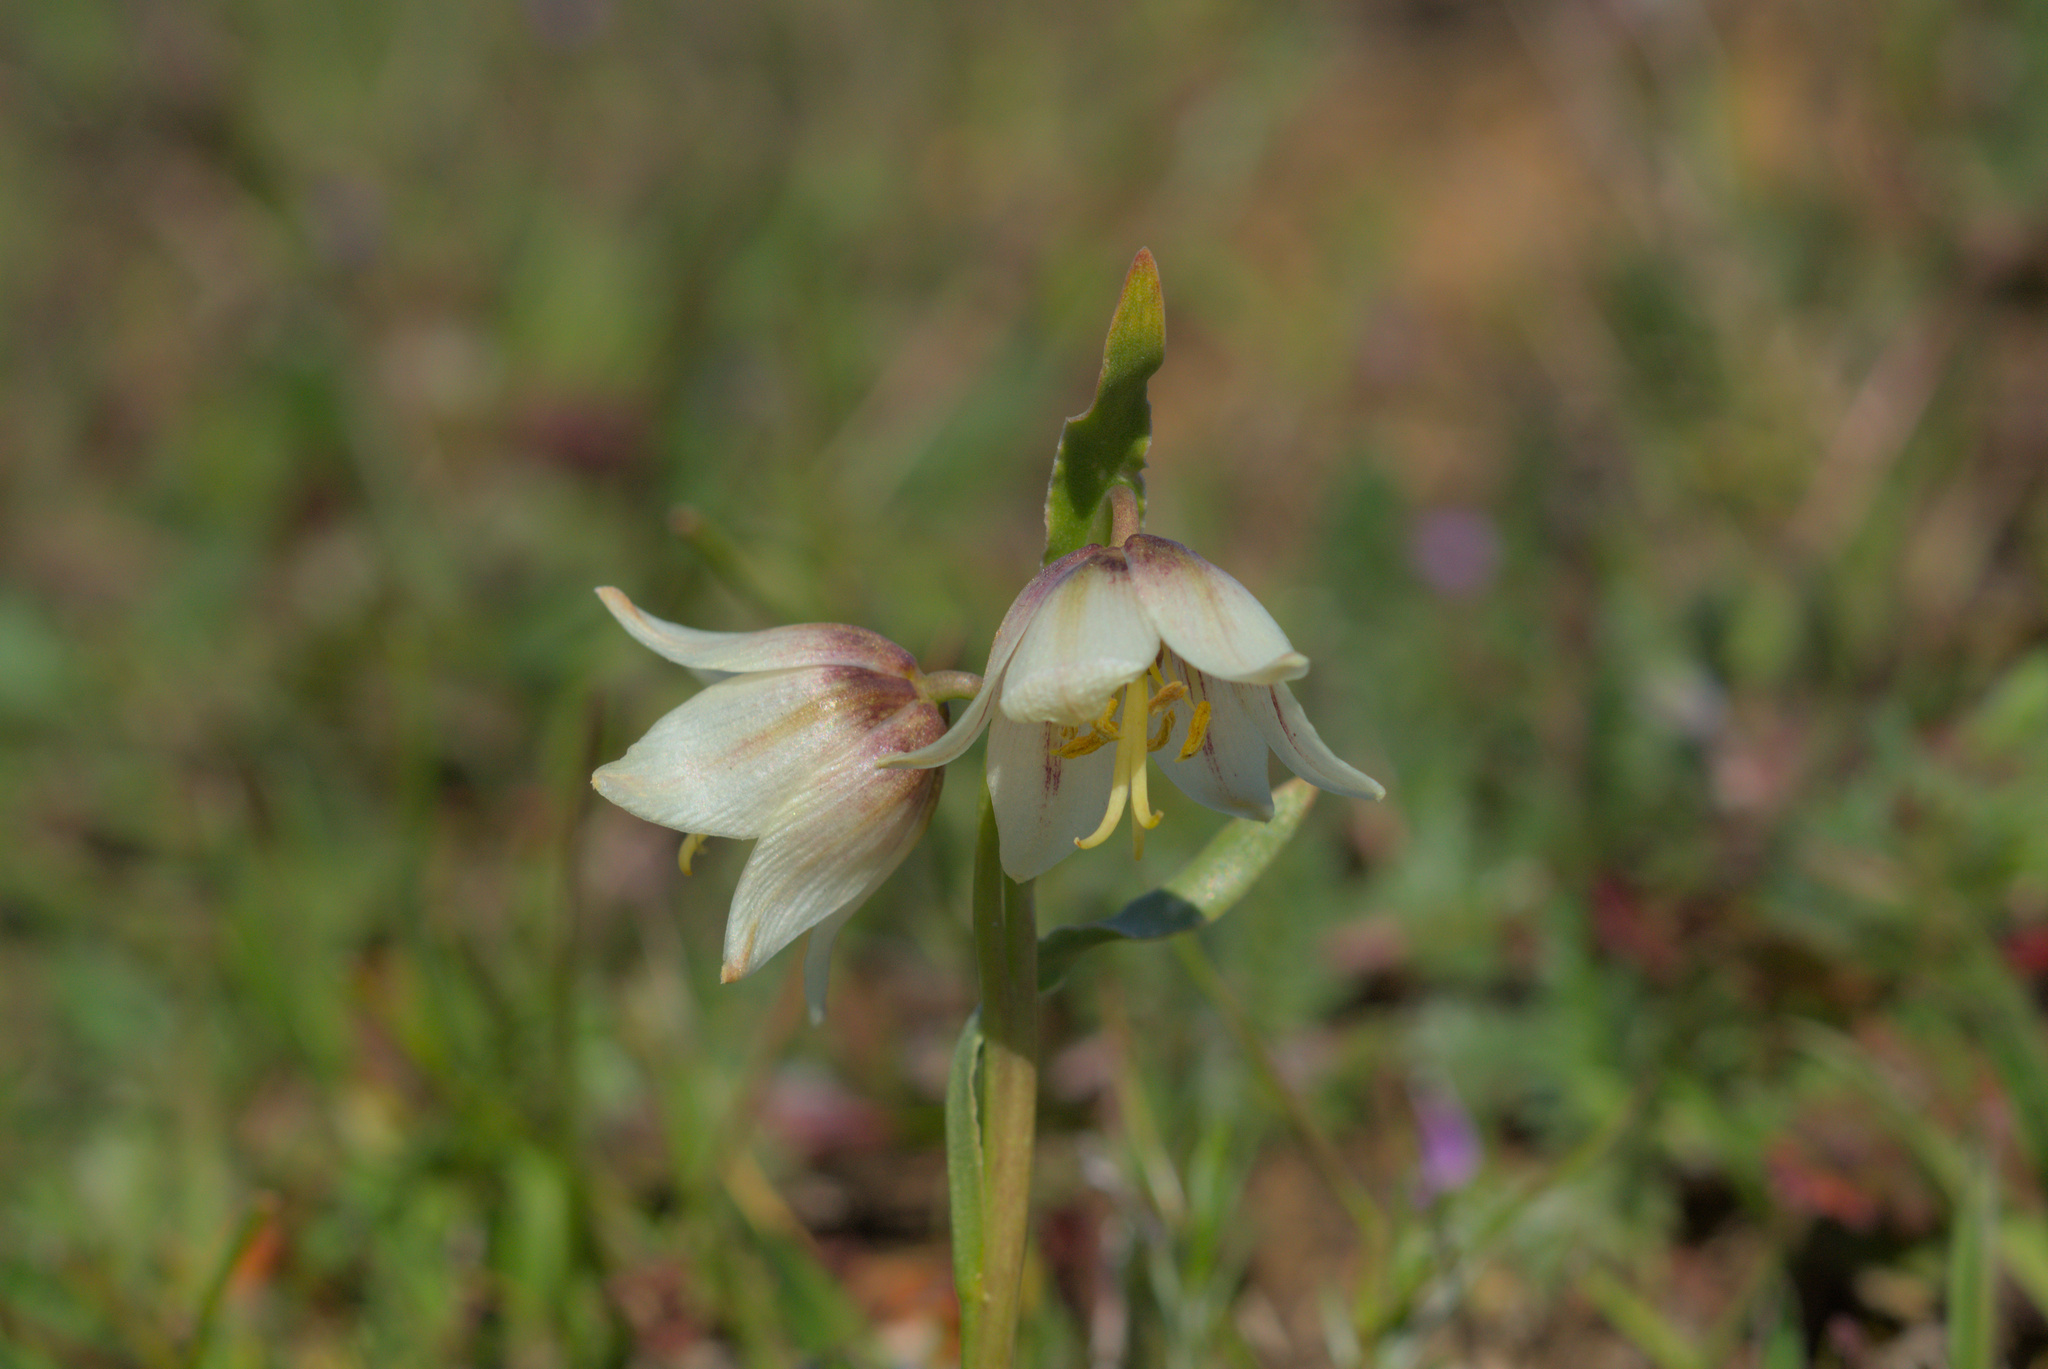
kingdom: Plantae
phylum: Tracheophyta
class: Liliopsida
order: Liliales
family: Liliaceae
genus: Fritillaria
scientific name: Fritillaria liliacea
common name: Fragrant fritillary
